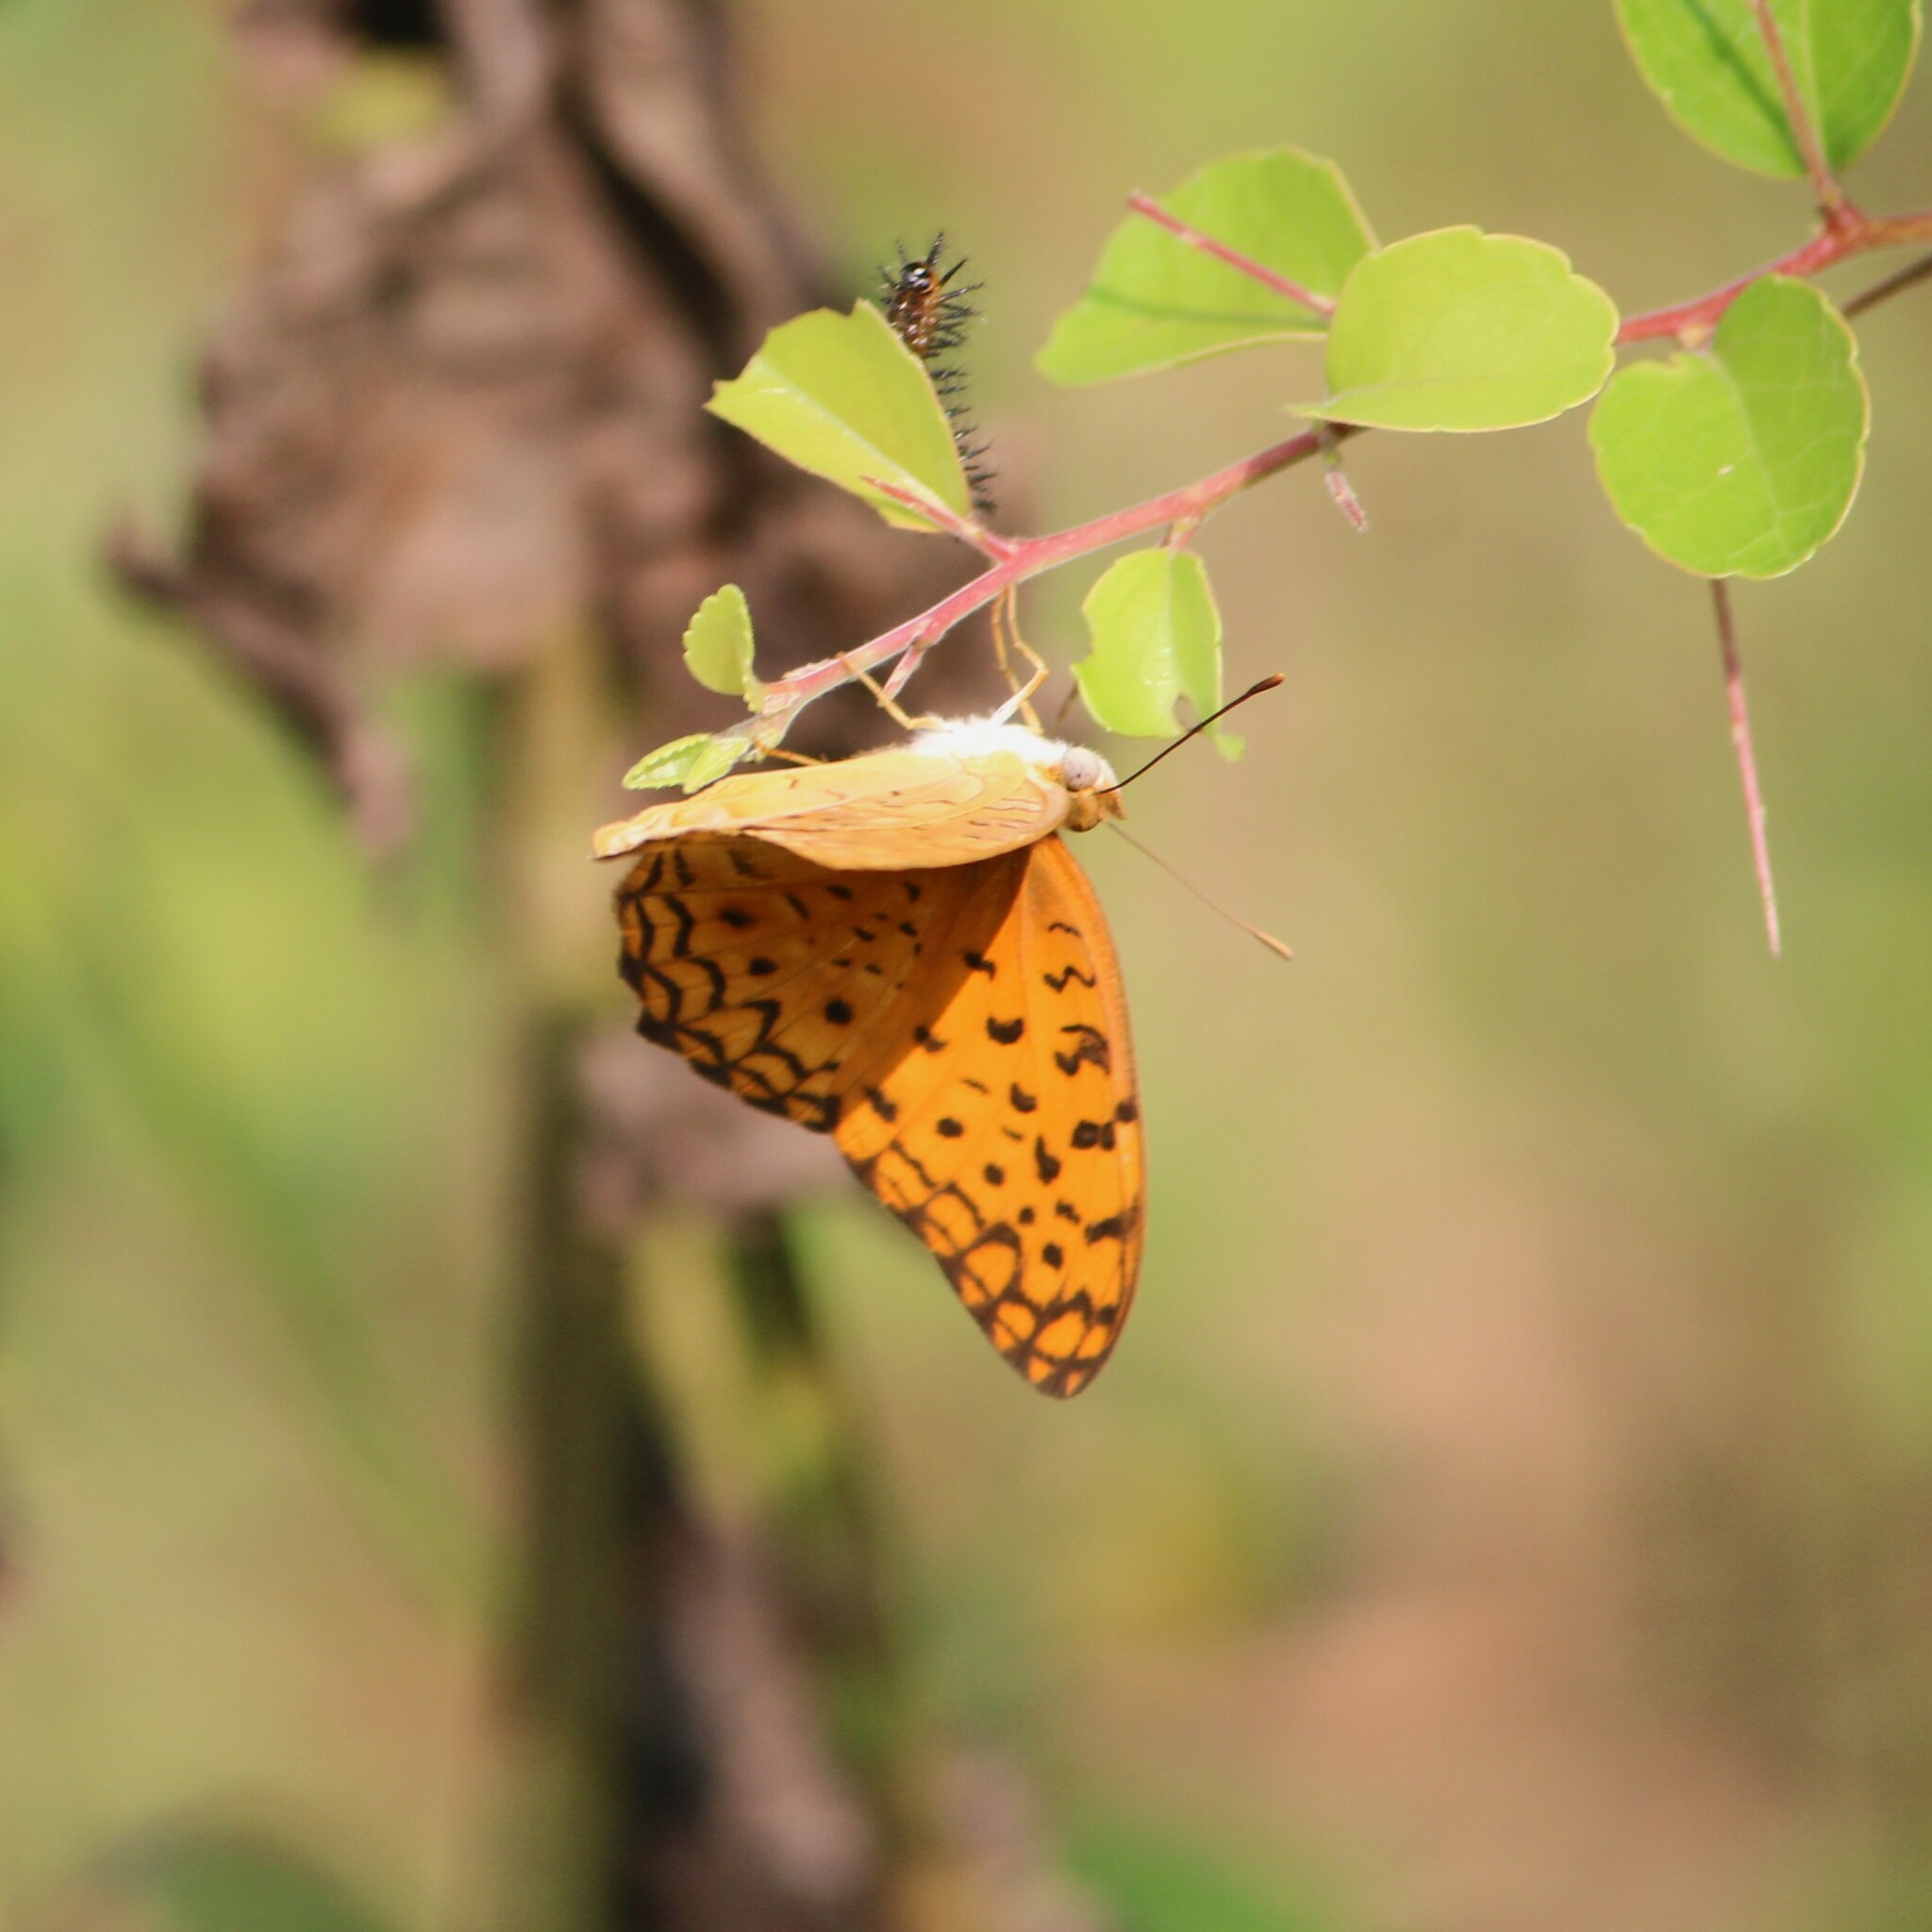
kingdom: Animalia
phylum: Arthropoda
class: Insecta
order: Lepidoptera
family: Nymphalidae
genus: Phalanta
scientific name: Phalanta phalantha
